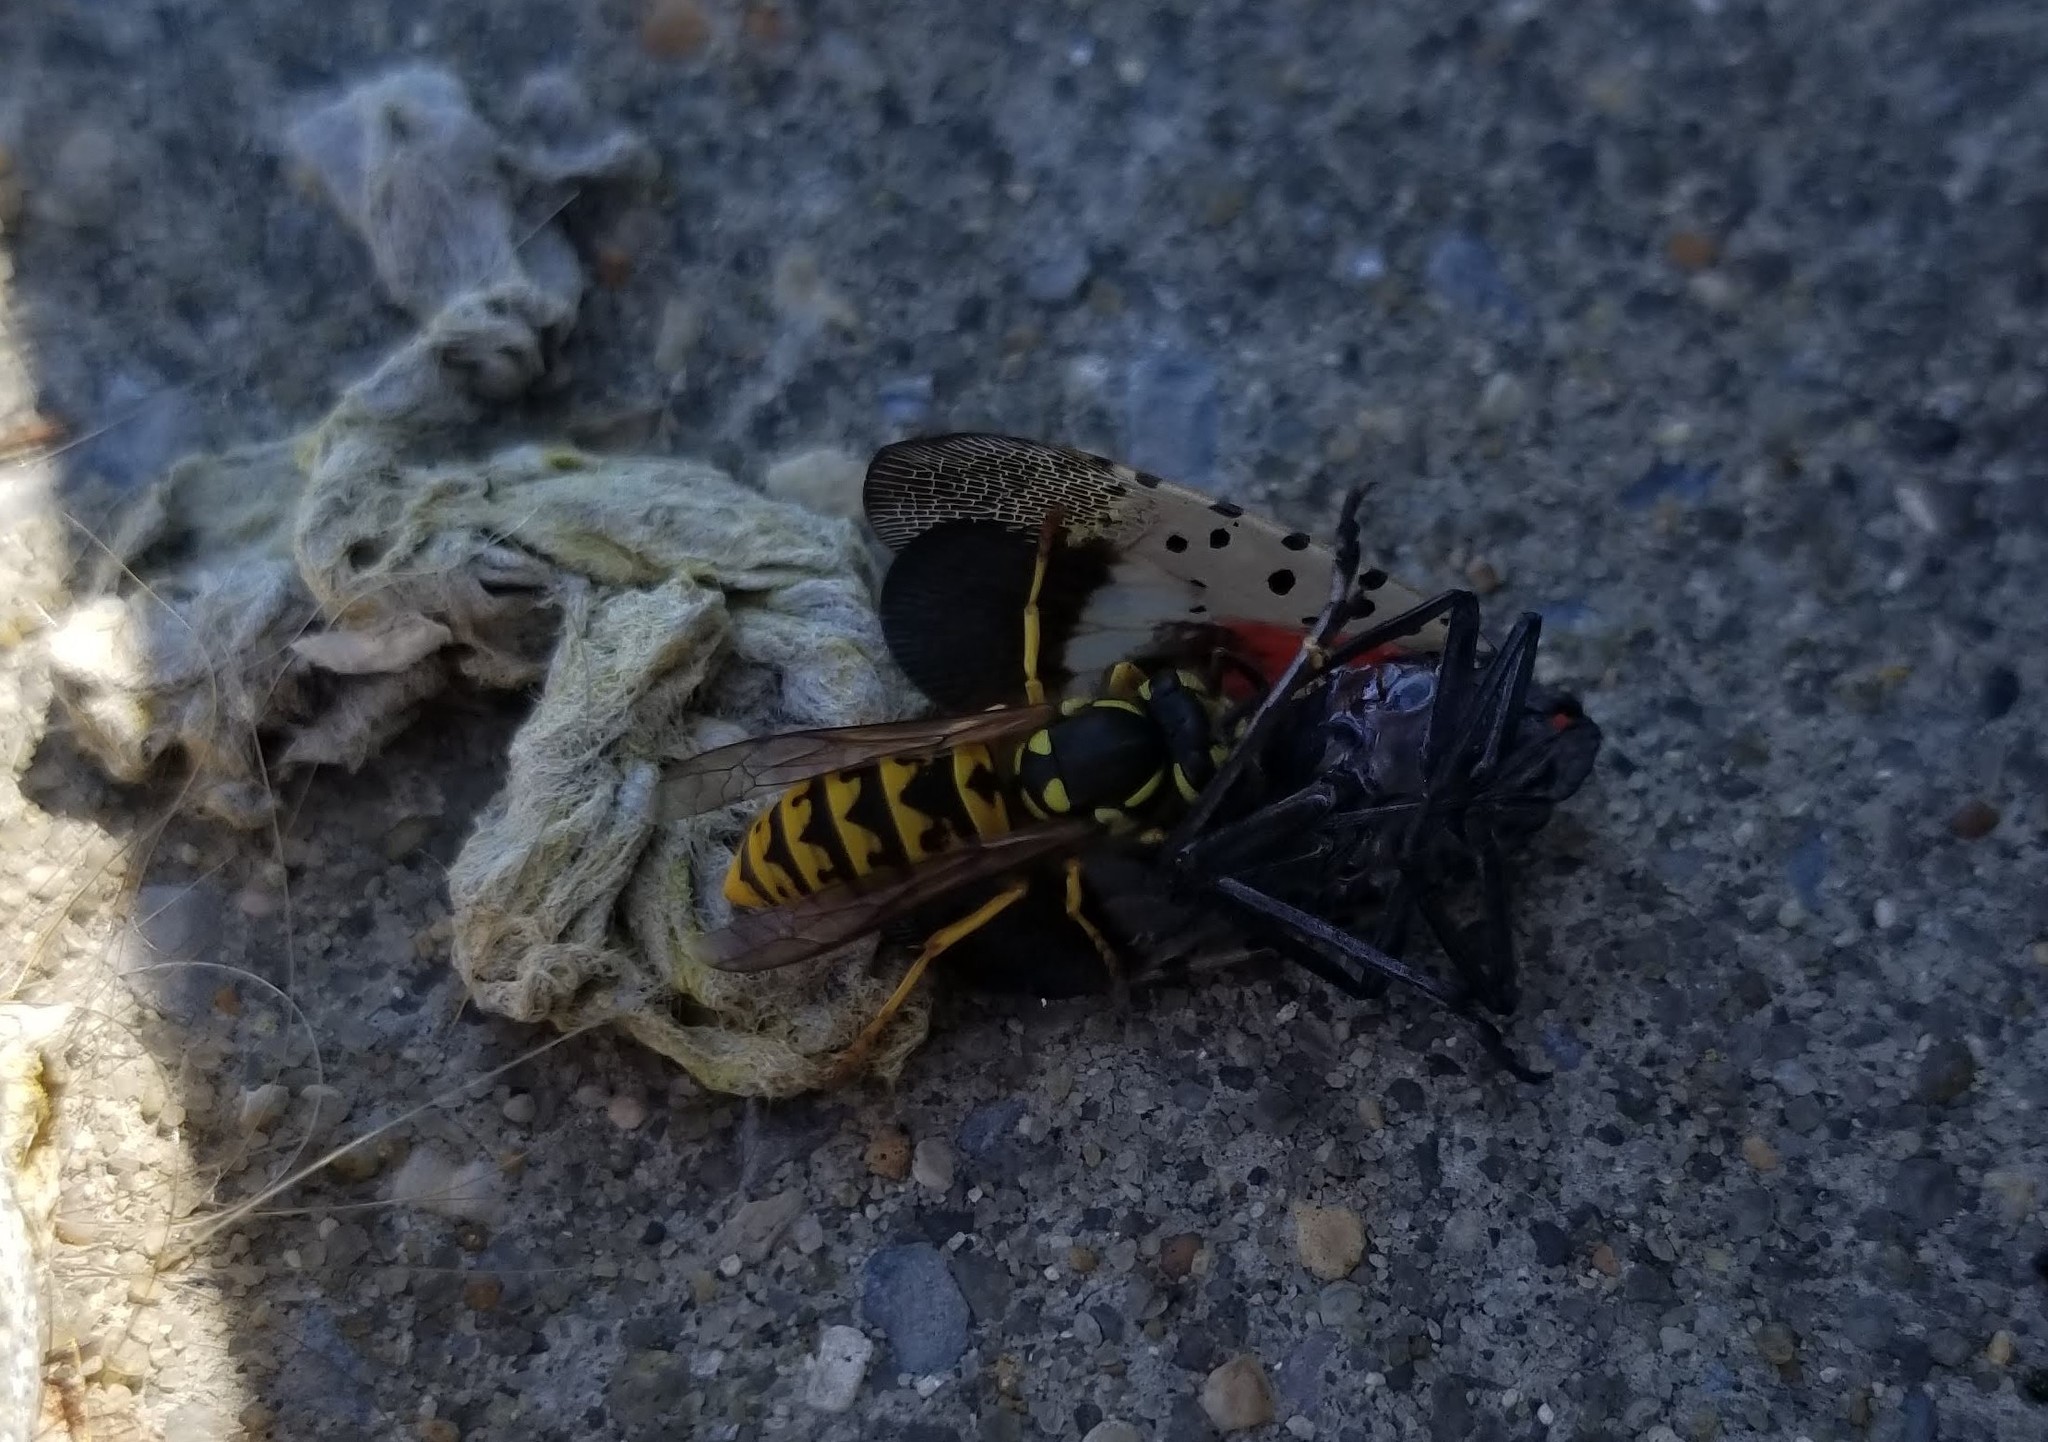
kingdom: Animalia
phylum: Arthropoda
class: Insecta
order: Hymenoptera
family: Vespidae
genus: Vespula
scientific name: Vespula germanica
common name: German wasp
